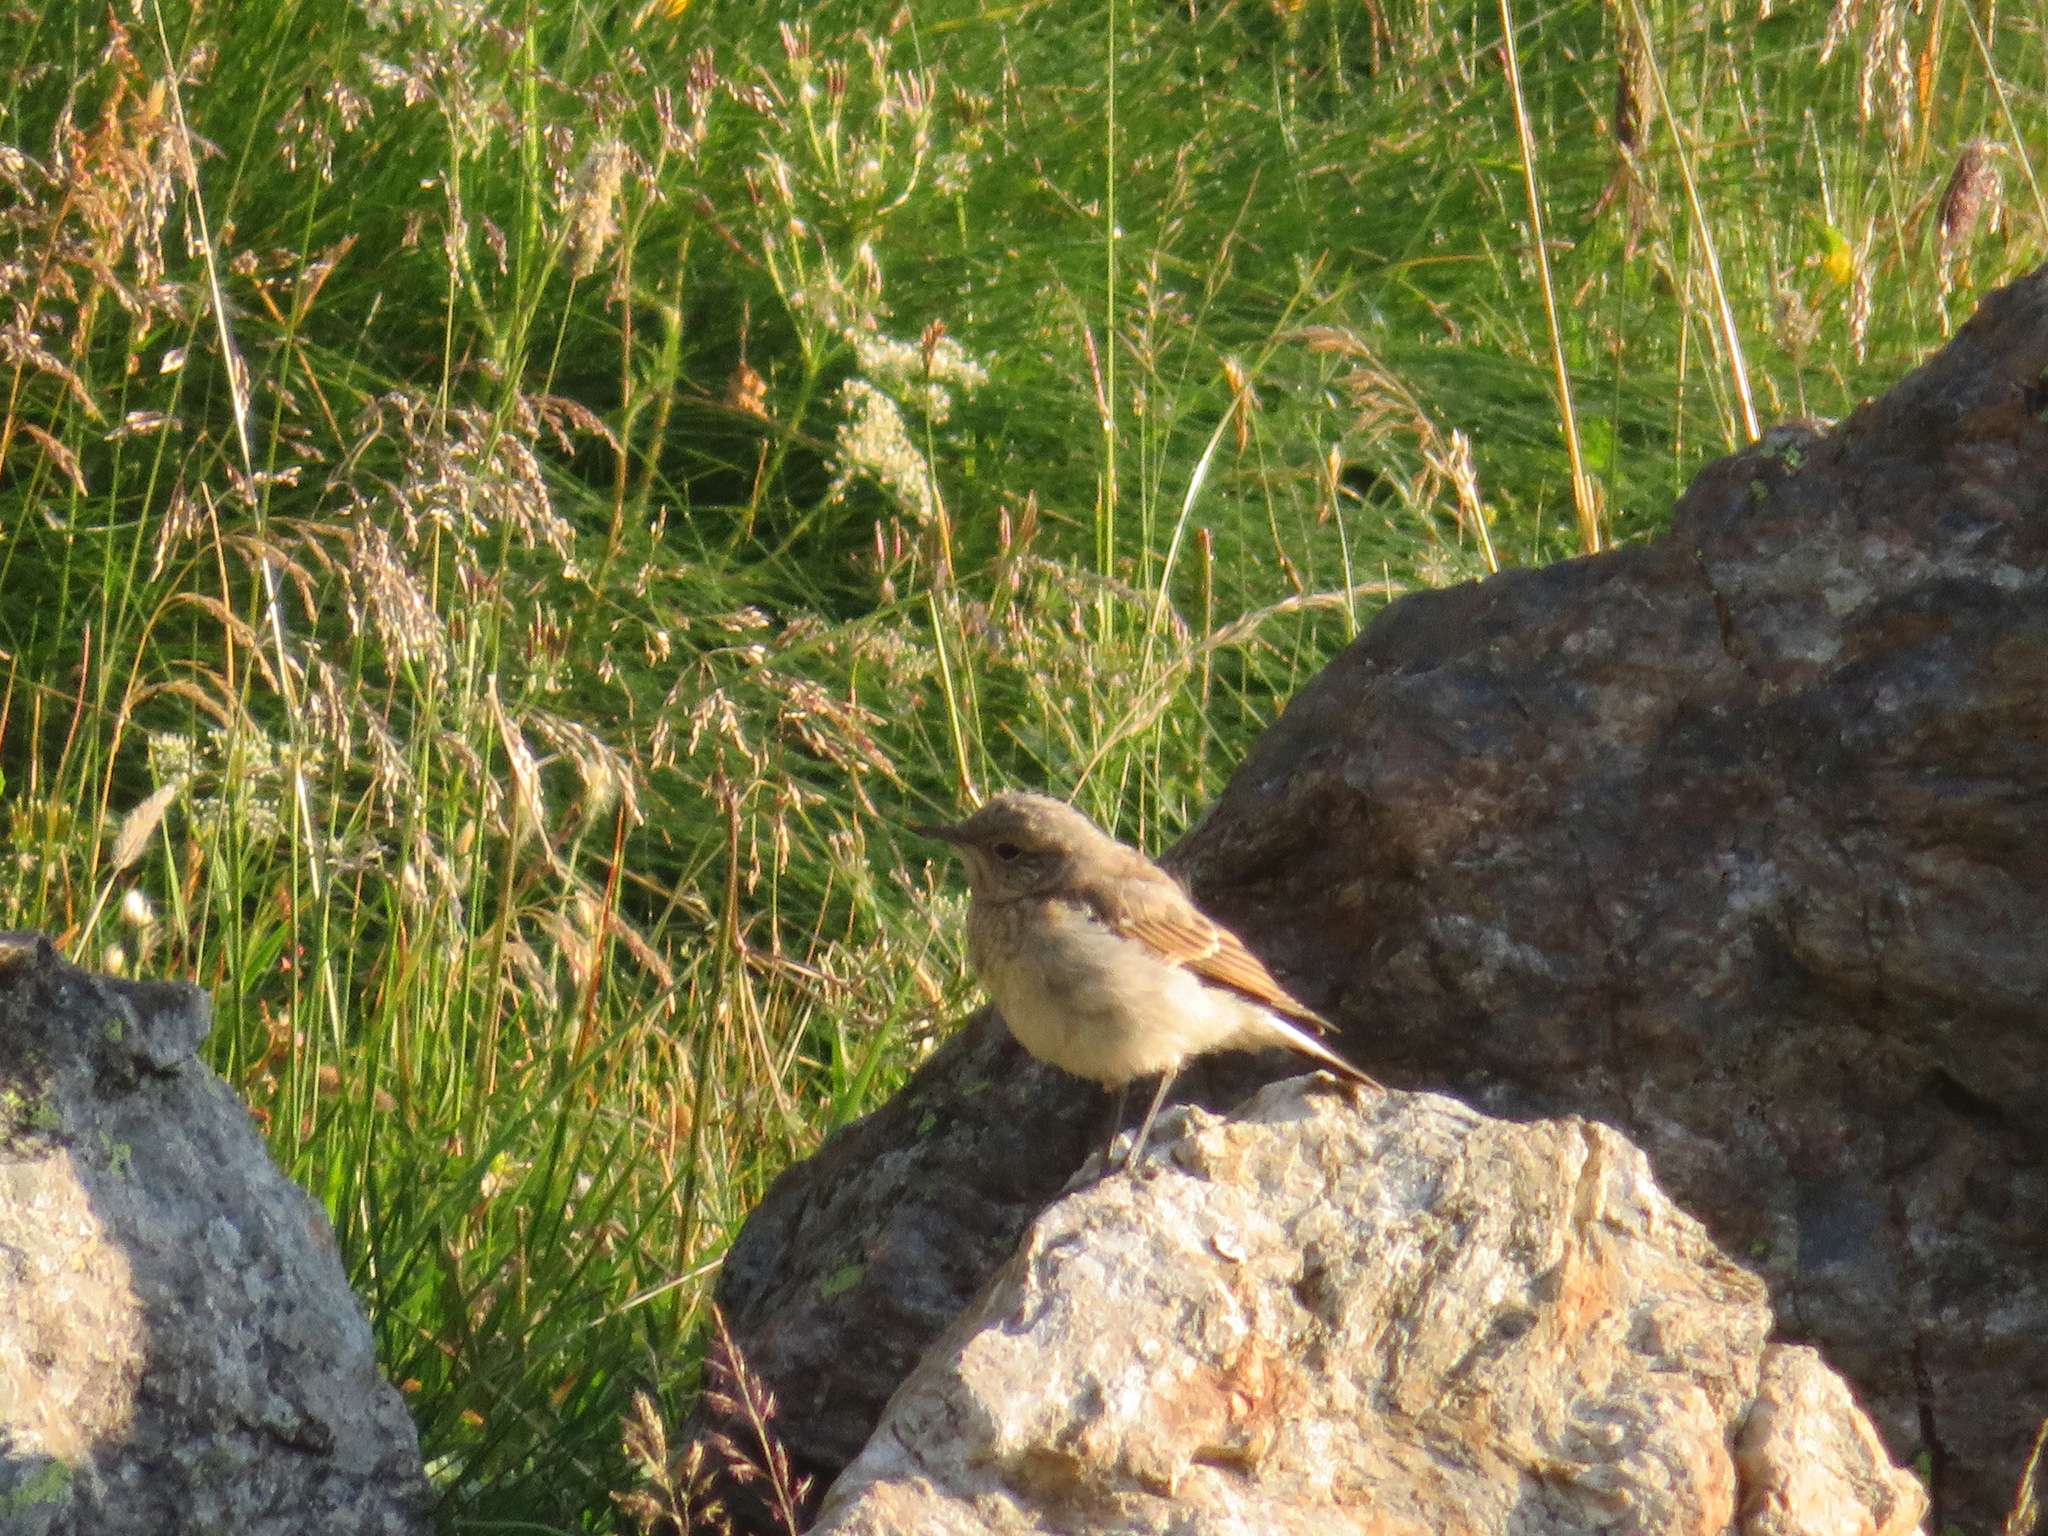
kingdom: Animalia
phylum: Chordata
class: Aves
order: Passeriformes
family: Muscicapidae
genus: Oenanthe
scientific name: Oenanthe oenanthe
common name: Northern wheatear
